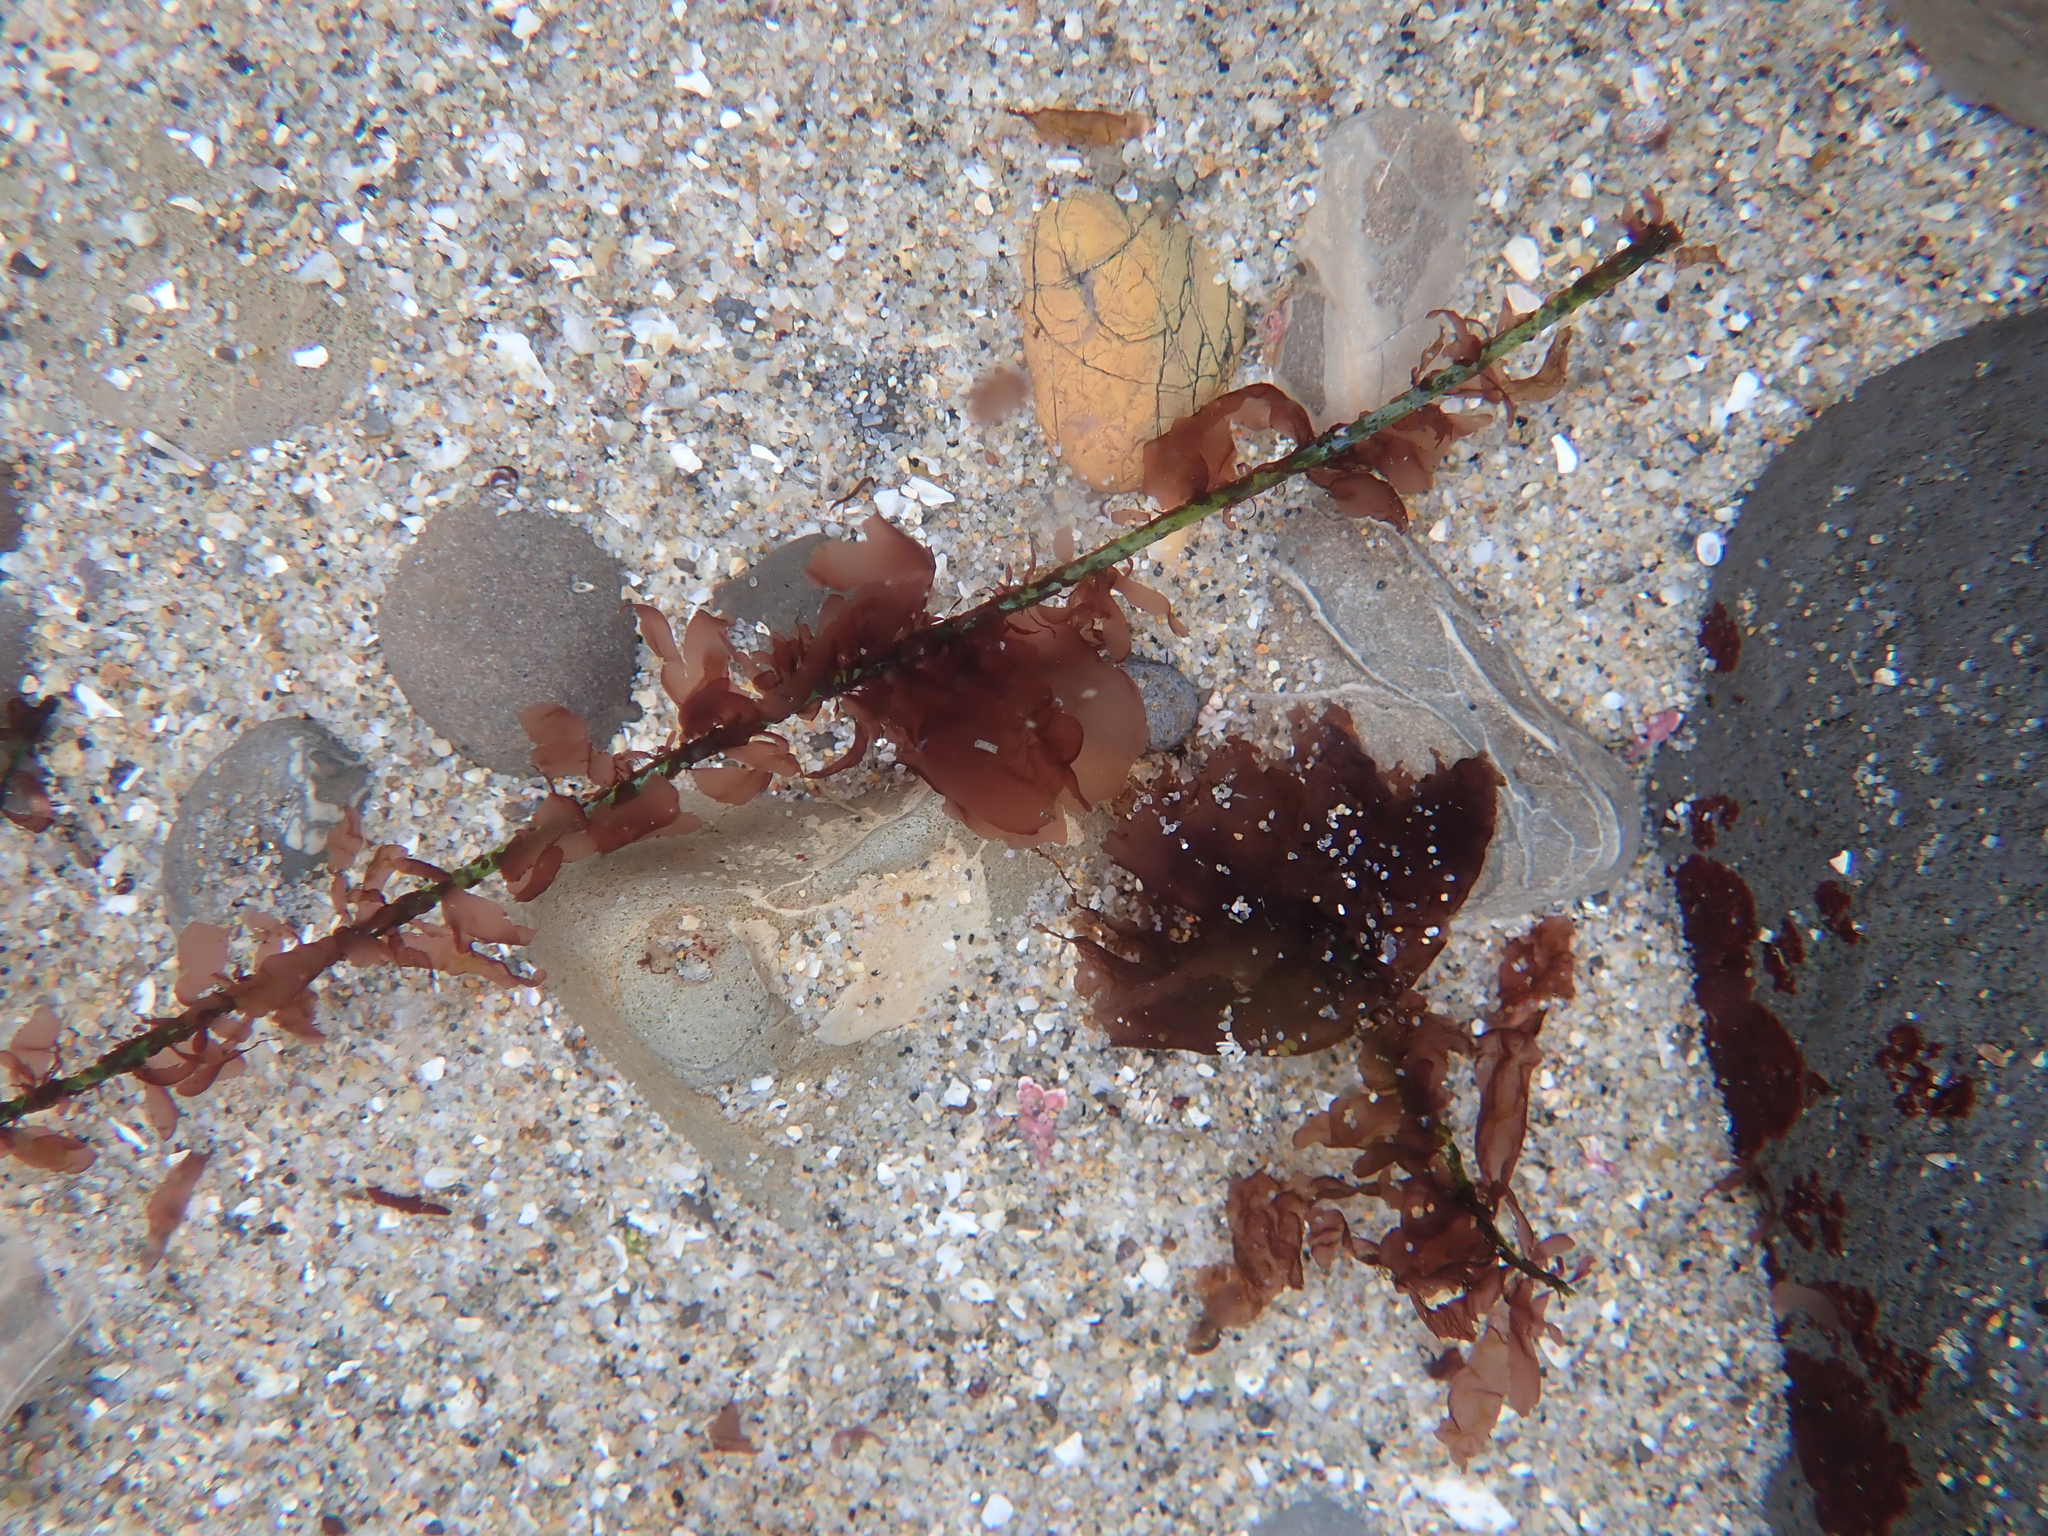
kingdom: Plantae
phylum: Rhodophyta
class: Compsopogonophyceae
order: Erythropeltidales
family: Erythrotrichiaceae
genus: Smithora
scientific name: Smithora naiadum
